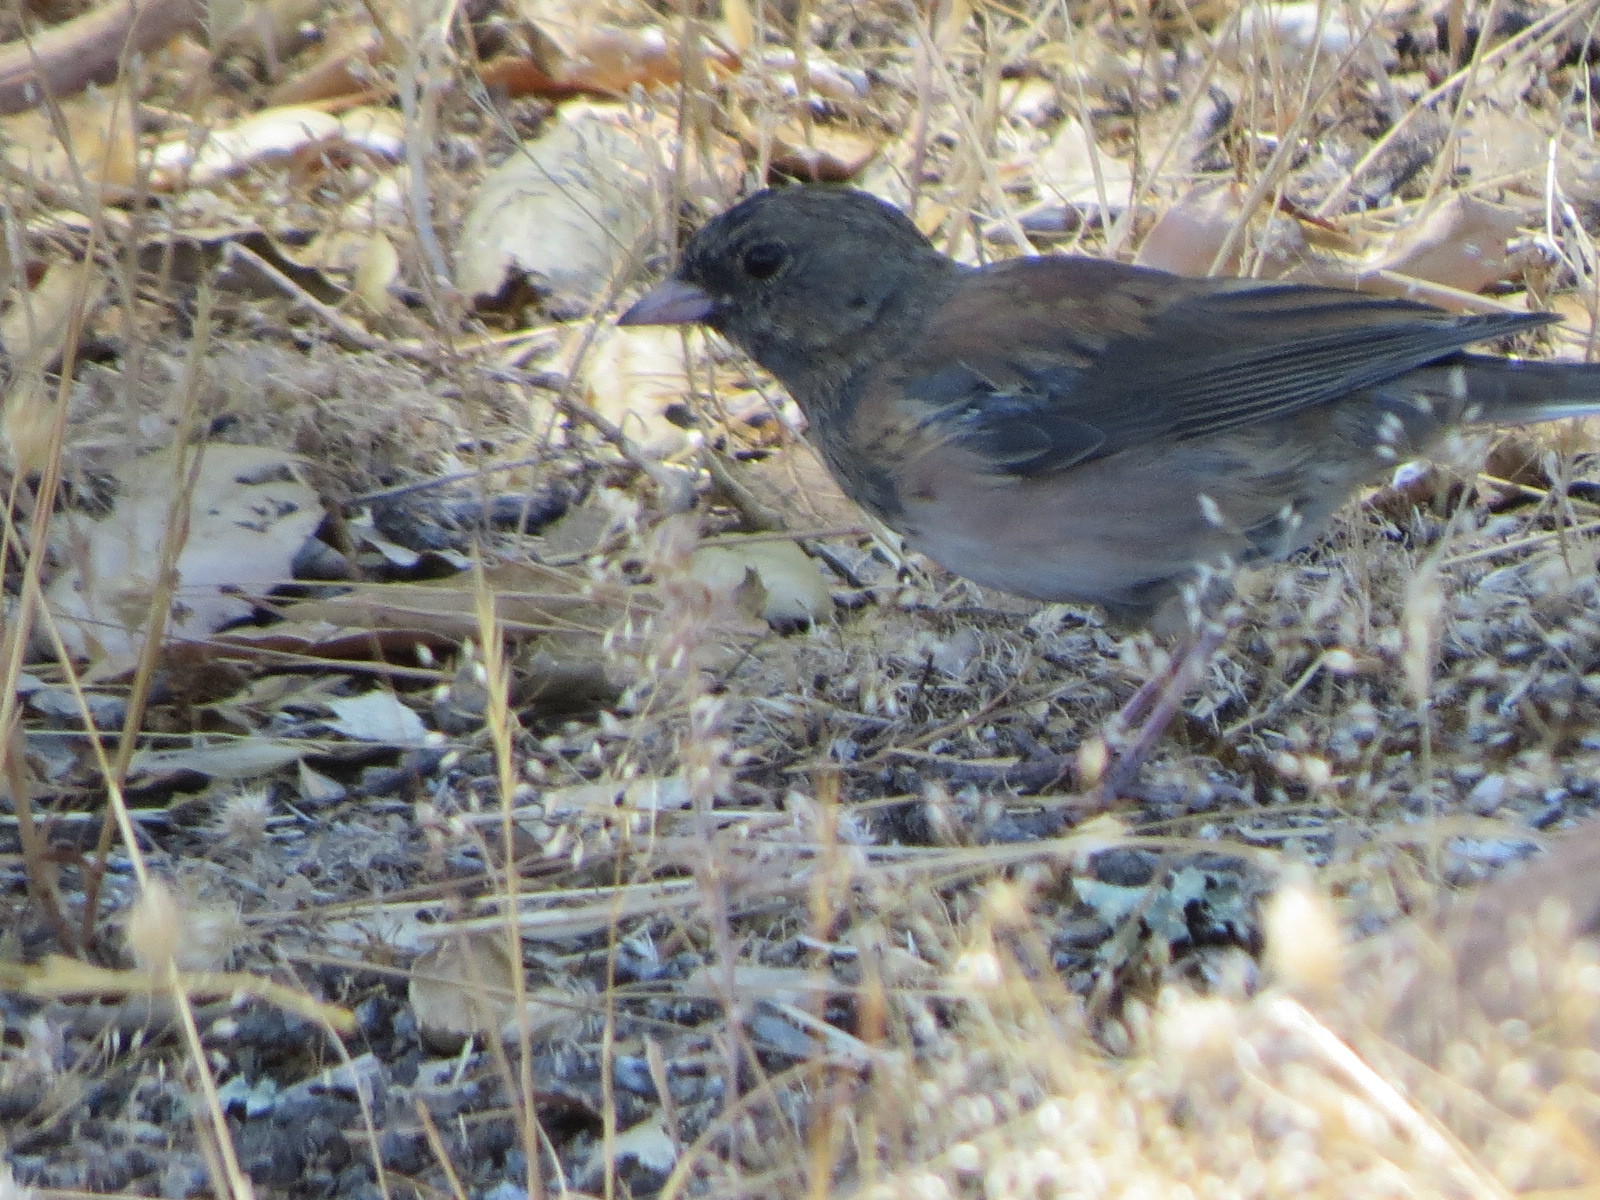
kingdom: Animalia
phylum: Chordata
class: Aves
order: Passeriformes
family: Passerellidae
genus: Junco
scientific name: Junco hyemalis
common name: Dark-eyed junco
